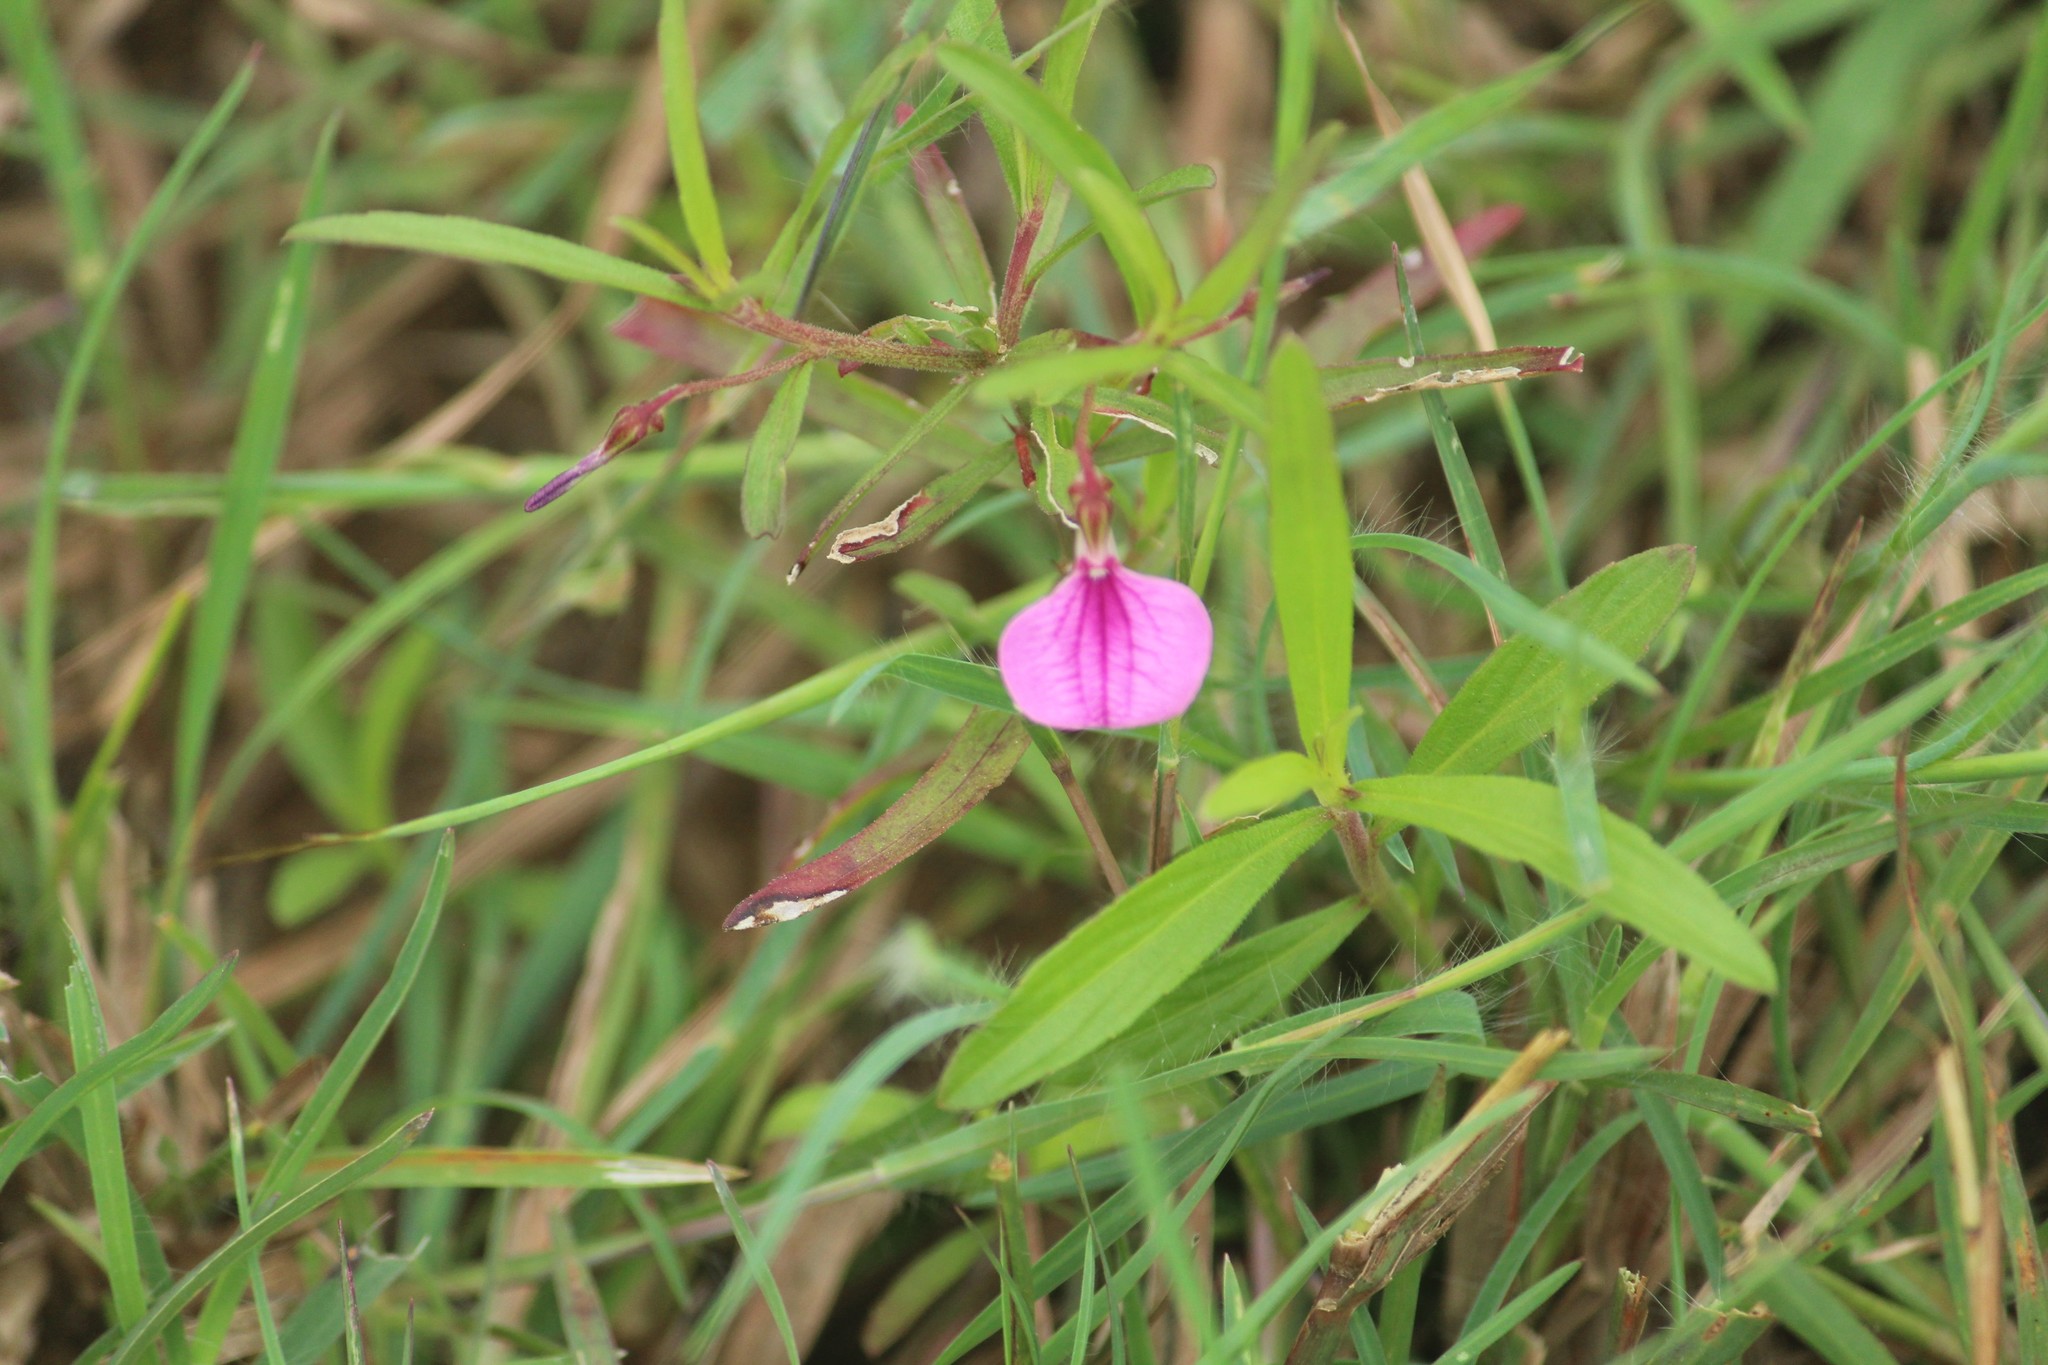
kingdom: Plantae
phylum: Tracheophyta
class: Magnoliopsida
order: Malpighiales
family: Violaceae
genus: Pigea
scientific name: Pigea enneasperma
